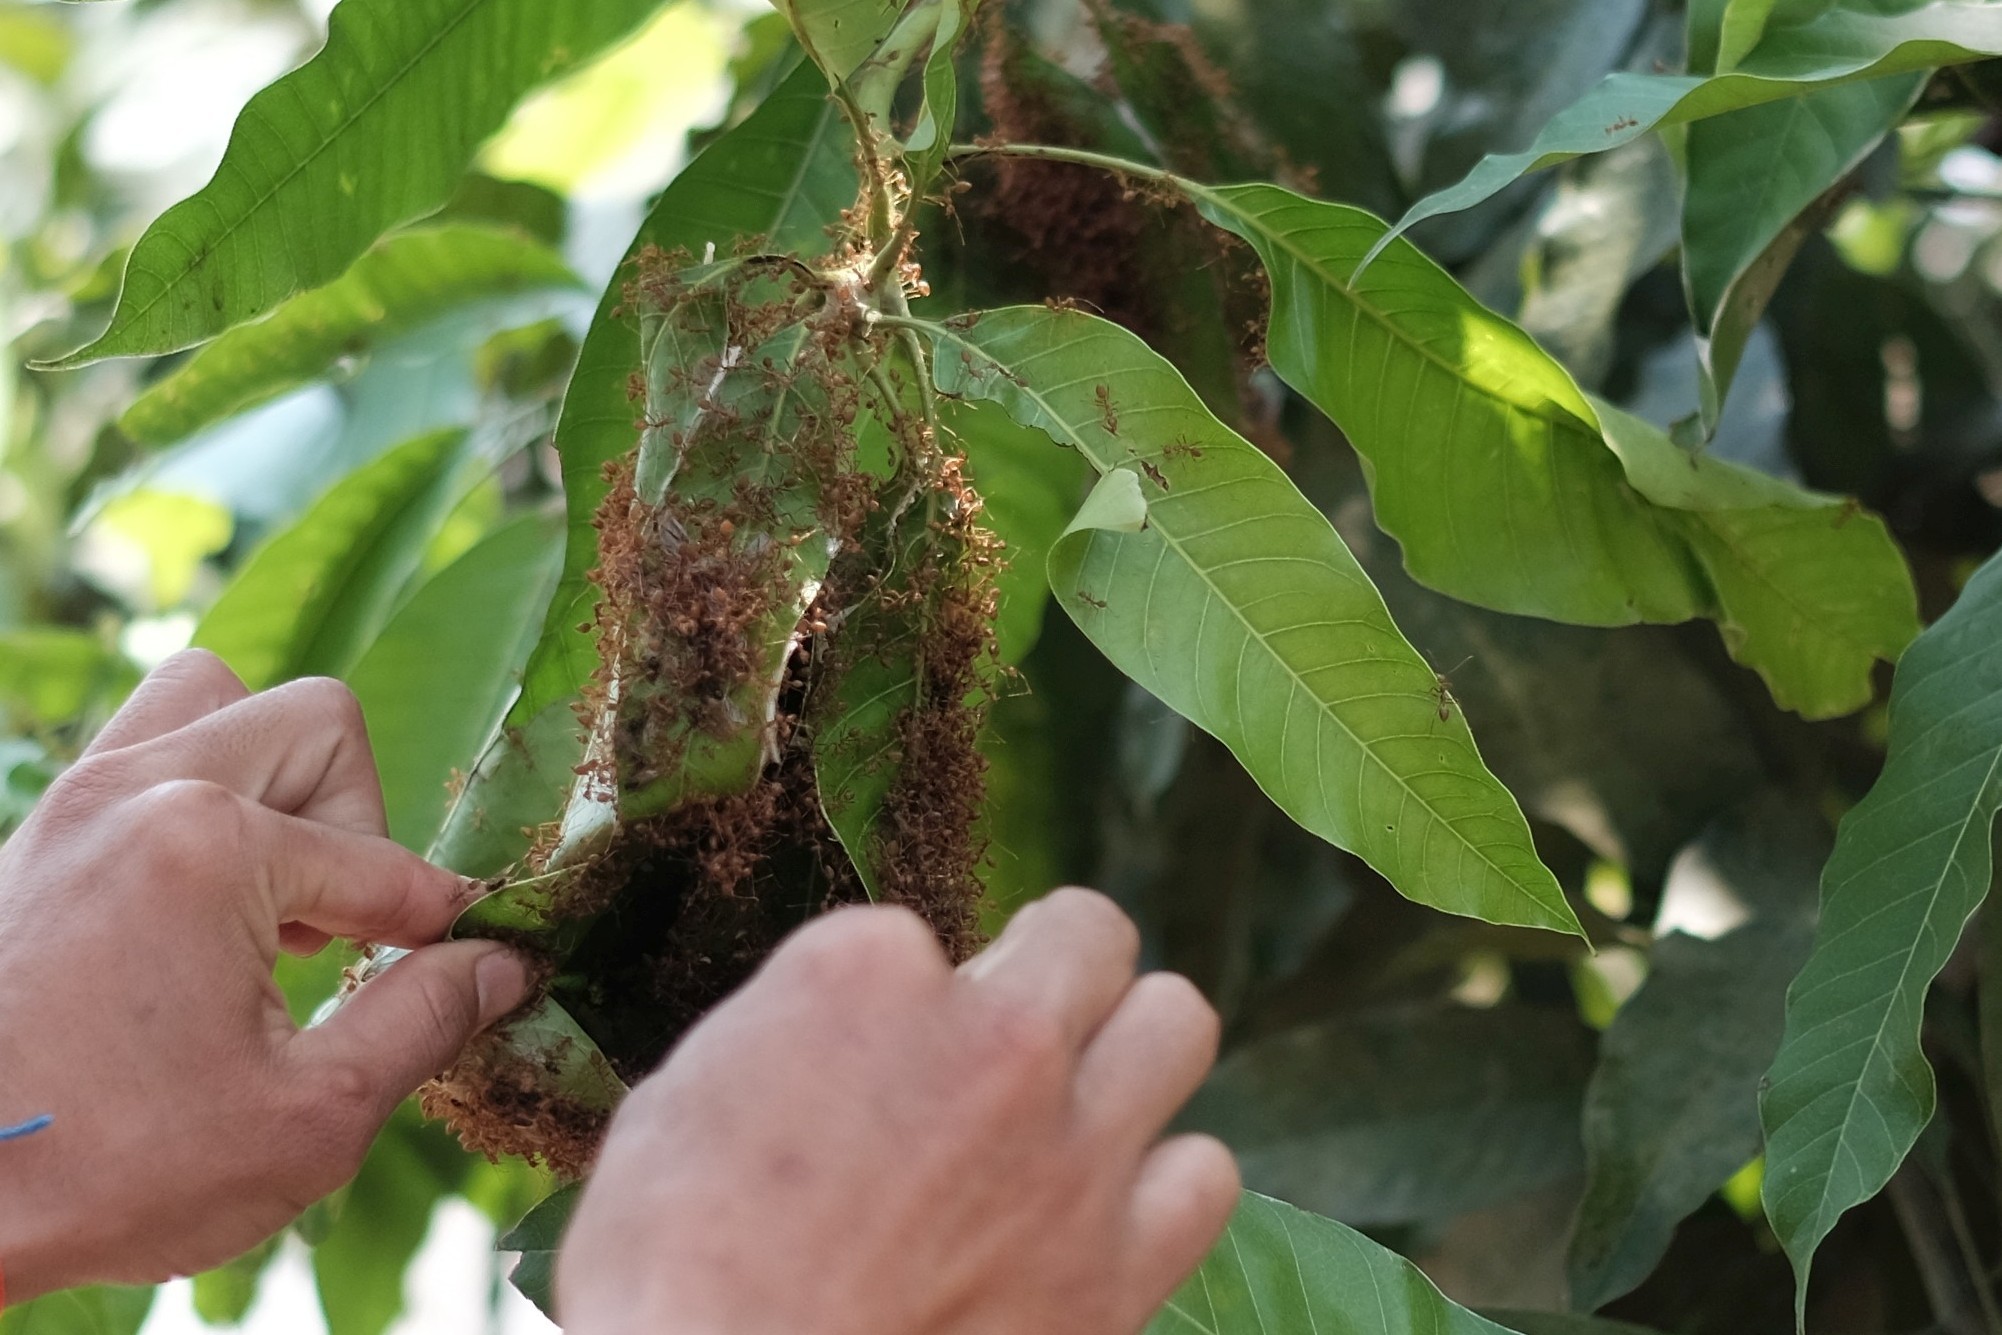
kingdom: Animalia
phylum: Arthropoda
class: Insecta
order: Hymenoptera
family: Formicidae
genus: Oecophylla
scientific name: Oecophylla smaragdina
